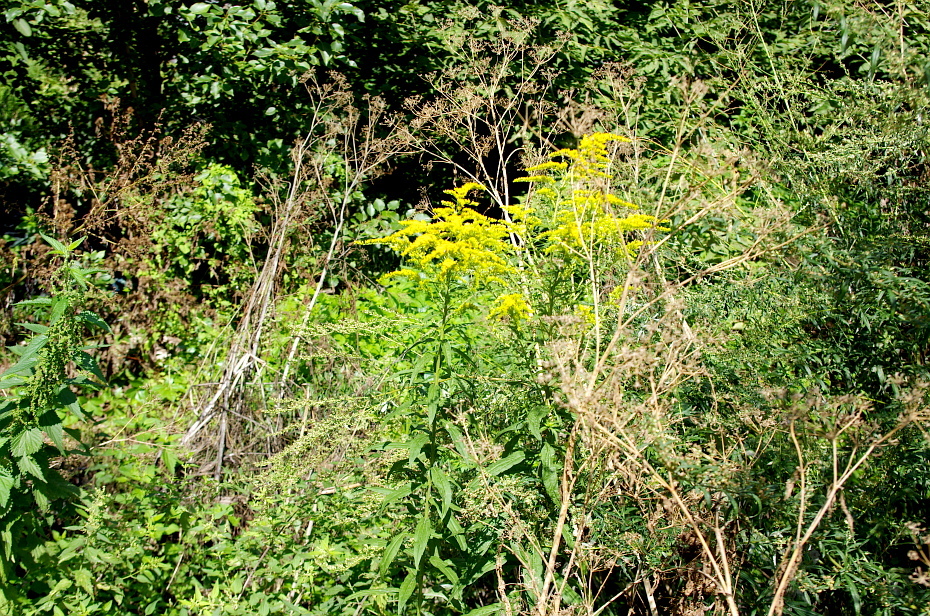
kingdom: Plantae
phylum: Tracheophyta
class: Magnoliopsida
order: Asterales
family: Asteraceae
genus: Solidago
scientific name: Solidago canadensis
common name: Canada goldenrod
